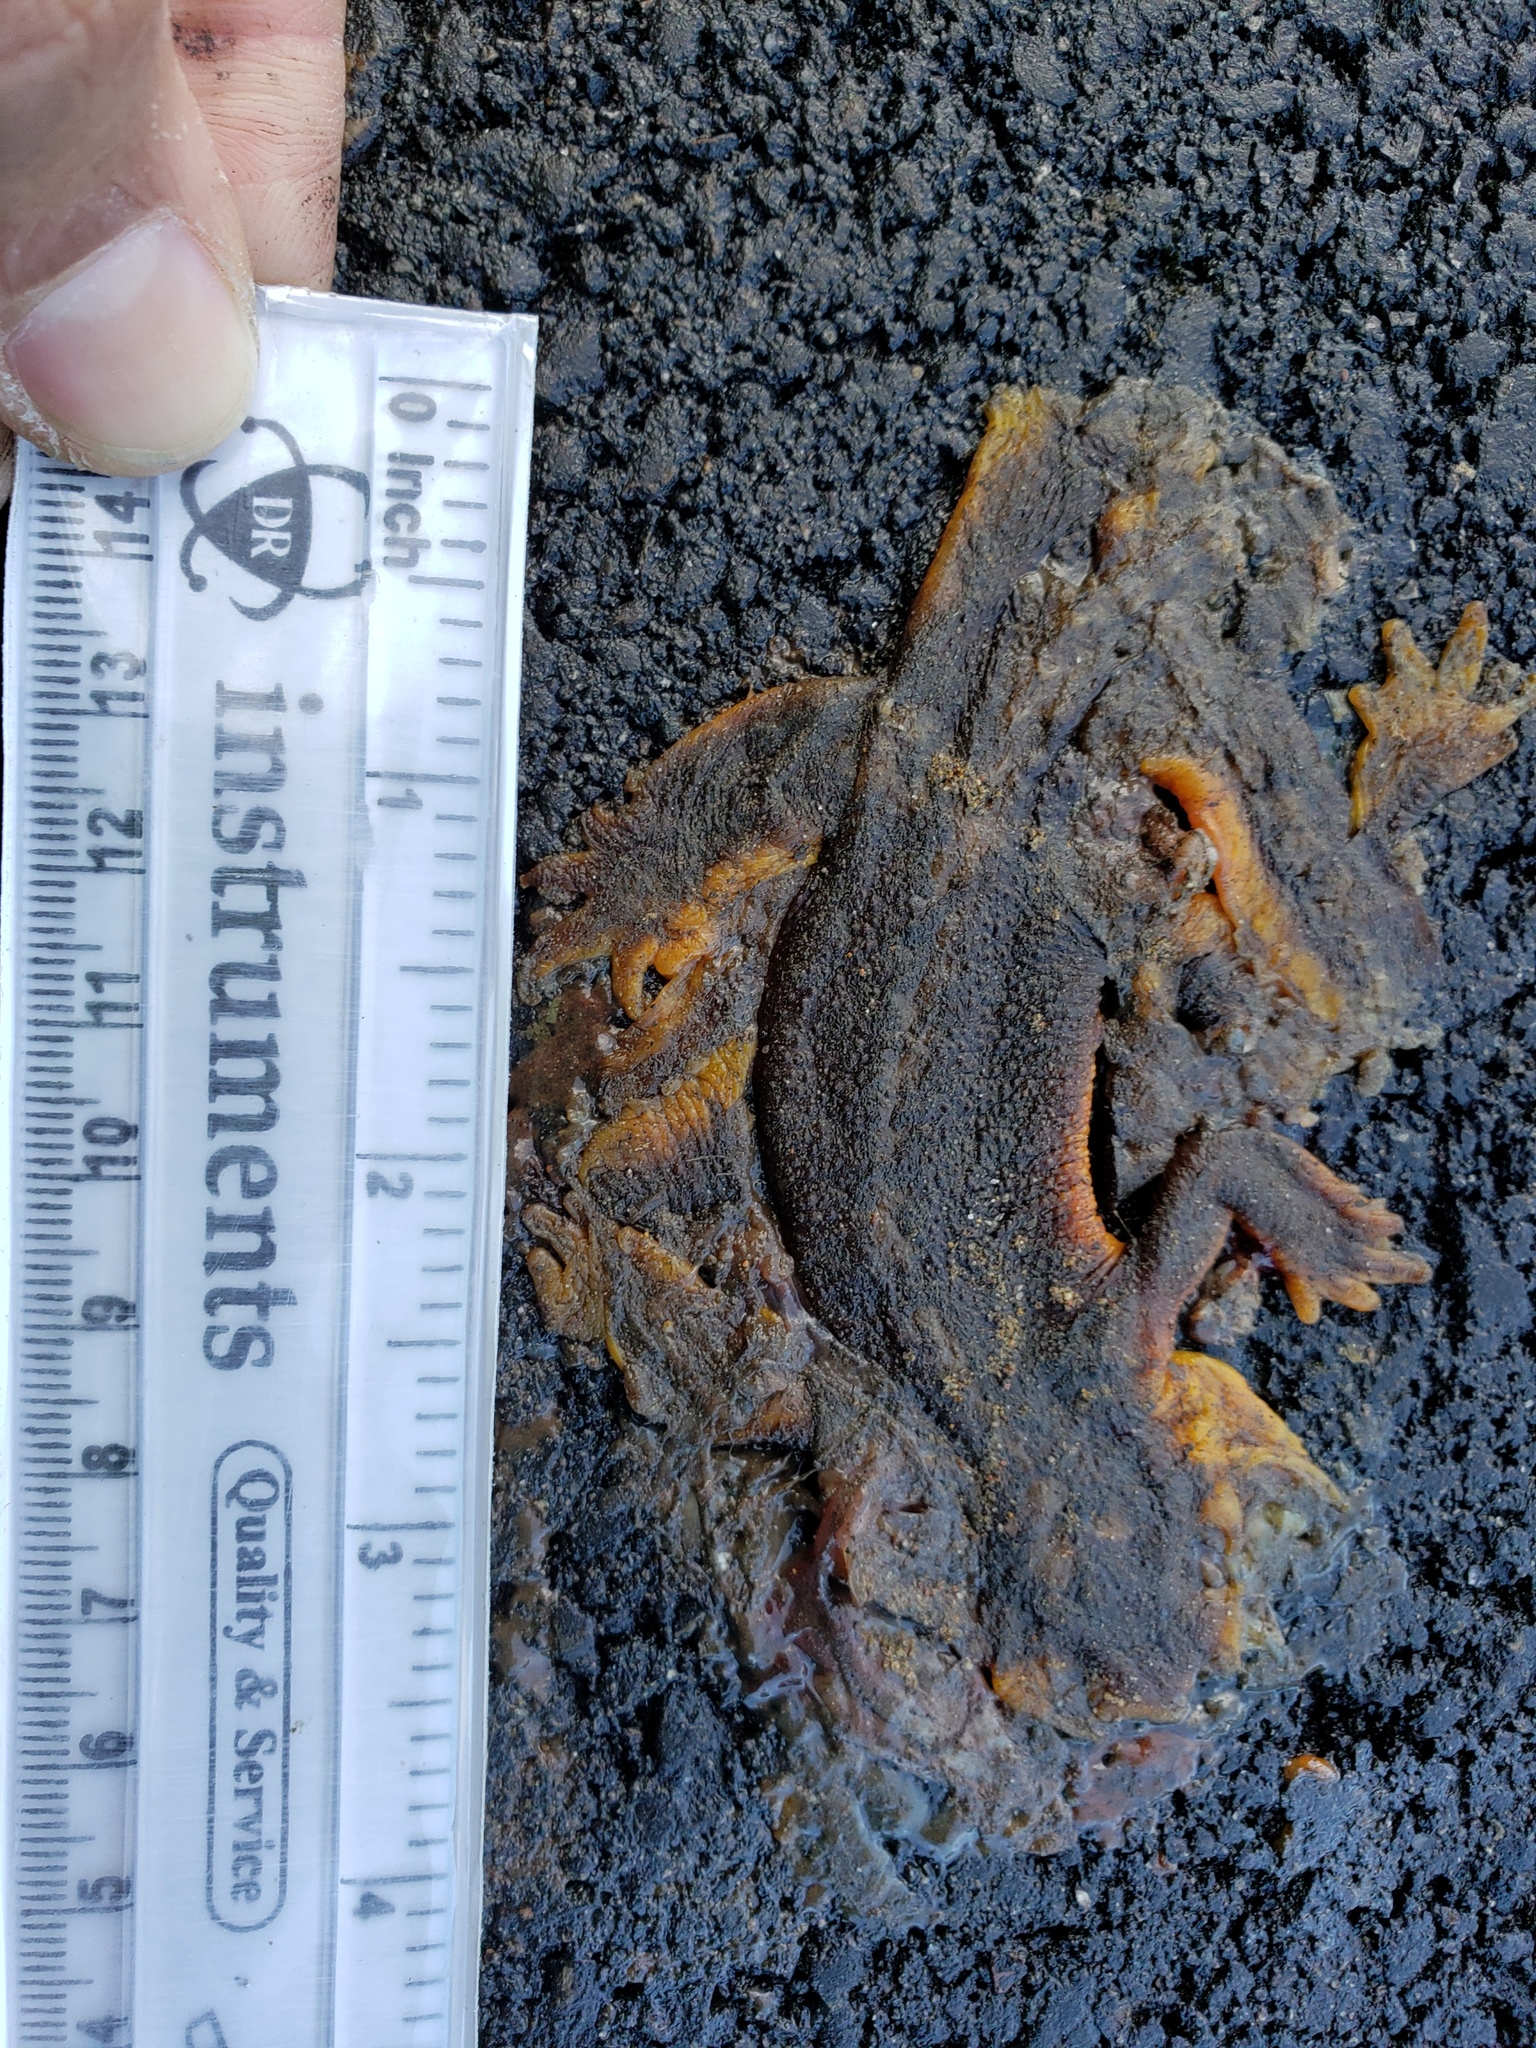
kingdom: Animalia
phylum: Chordata
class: Amphibia
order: Caudata
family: Salamandridae
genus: Taricha
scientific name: Taricha
